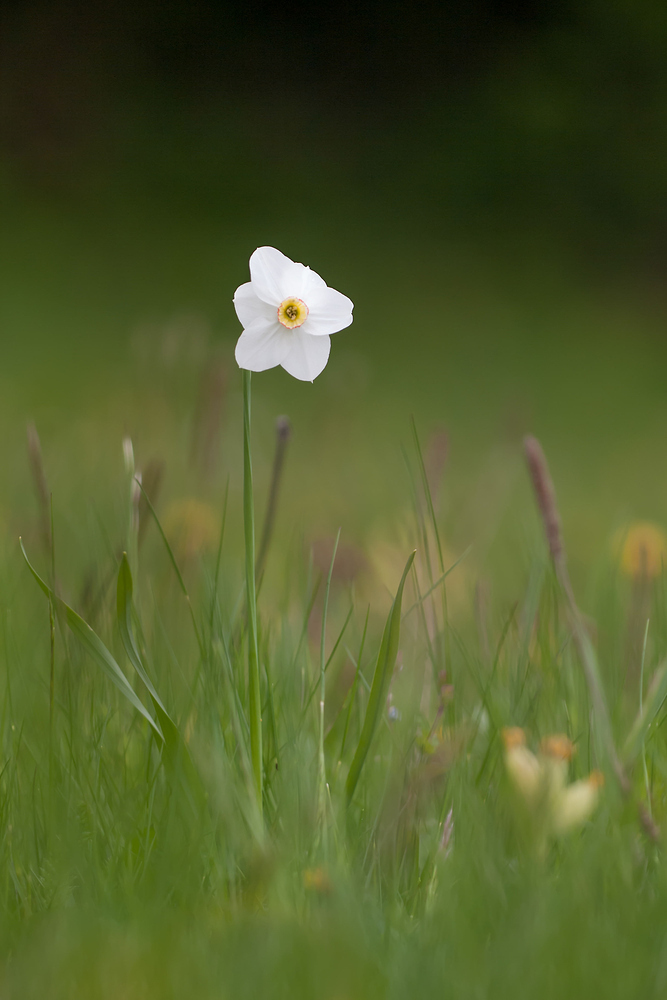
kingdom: Plantae
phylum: Tracheophyta
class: Liliopsida
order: Asparagales
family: Amaryllidaceae
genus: Narcissus
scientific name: Narcissus poeticus
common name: Pheasant's-eye daffodil
